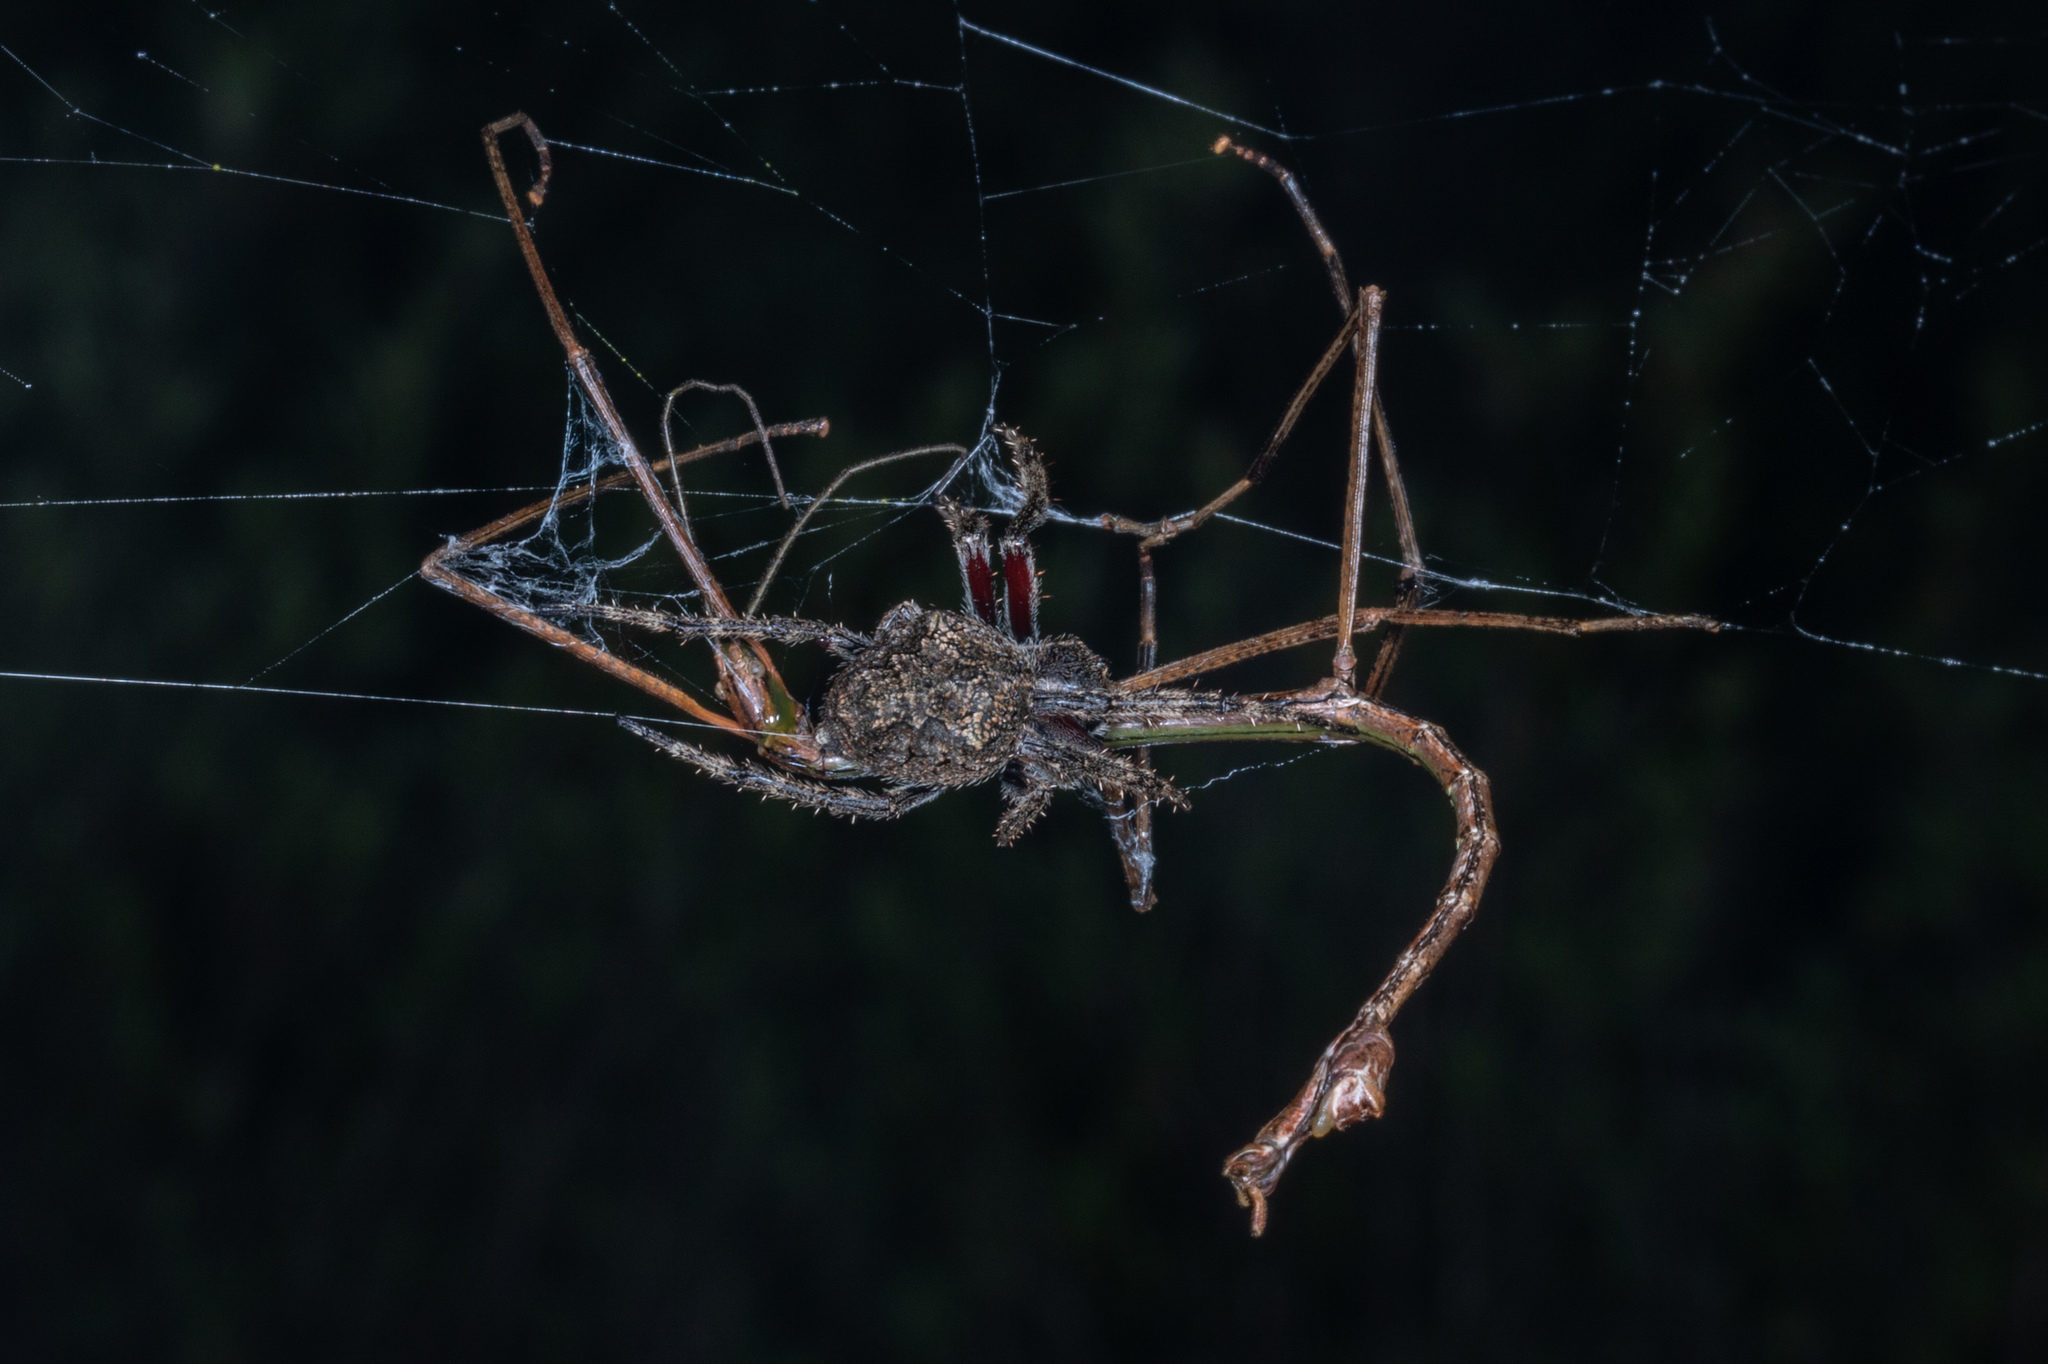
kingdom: Animalia
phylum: Arthropoda
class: Arachnida
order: Araneae
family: Araneidae
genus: Eriophora
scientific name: Eriophora pustulosa
